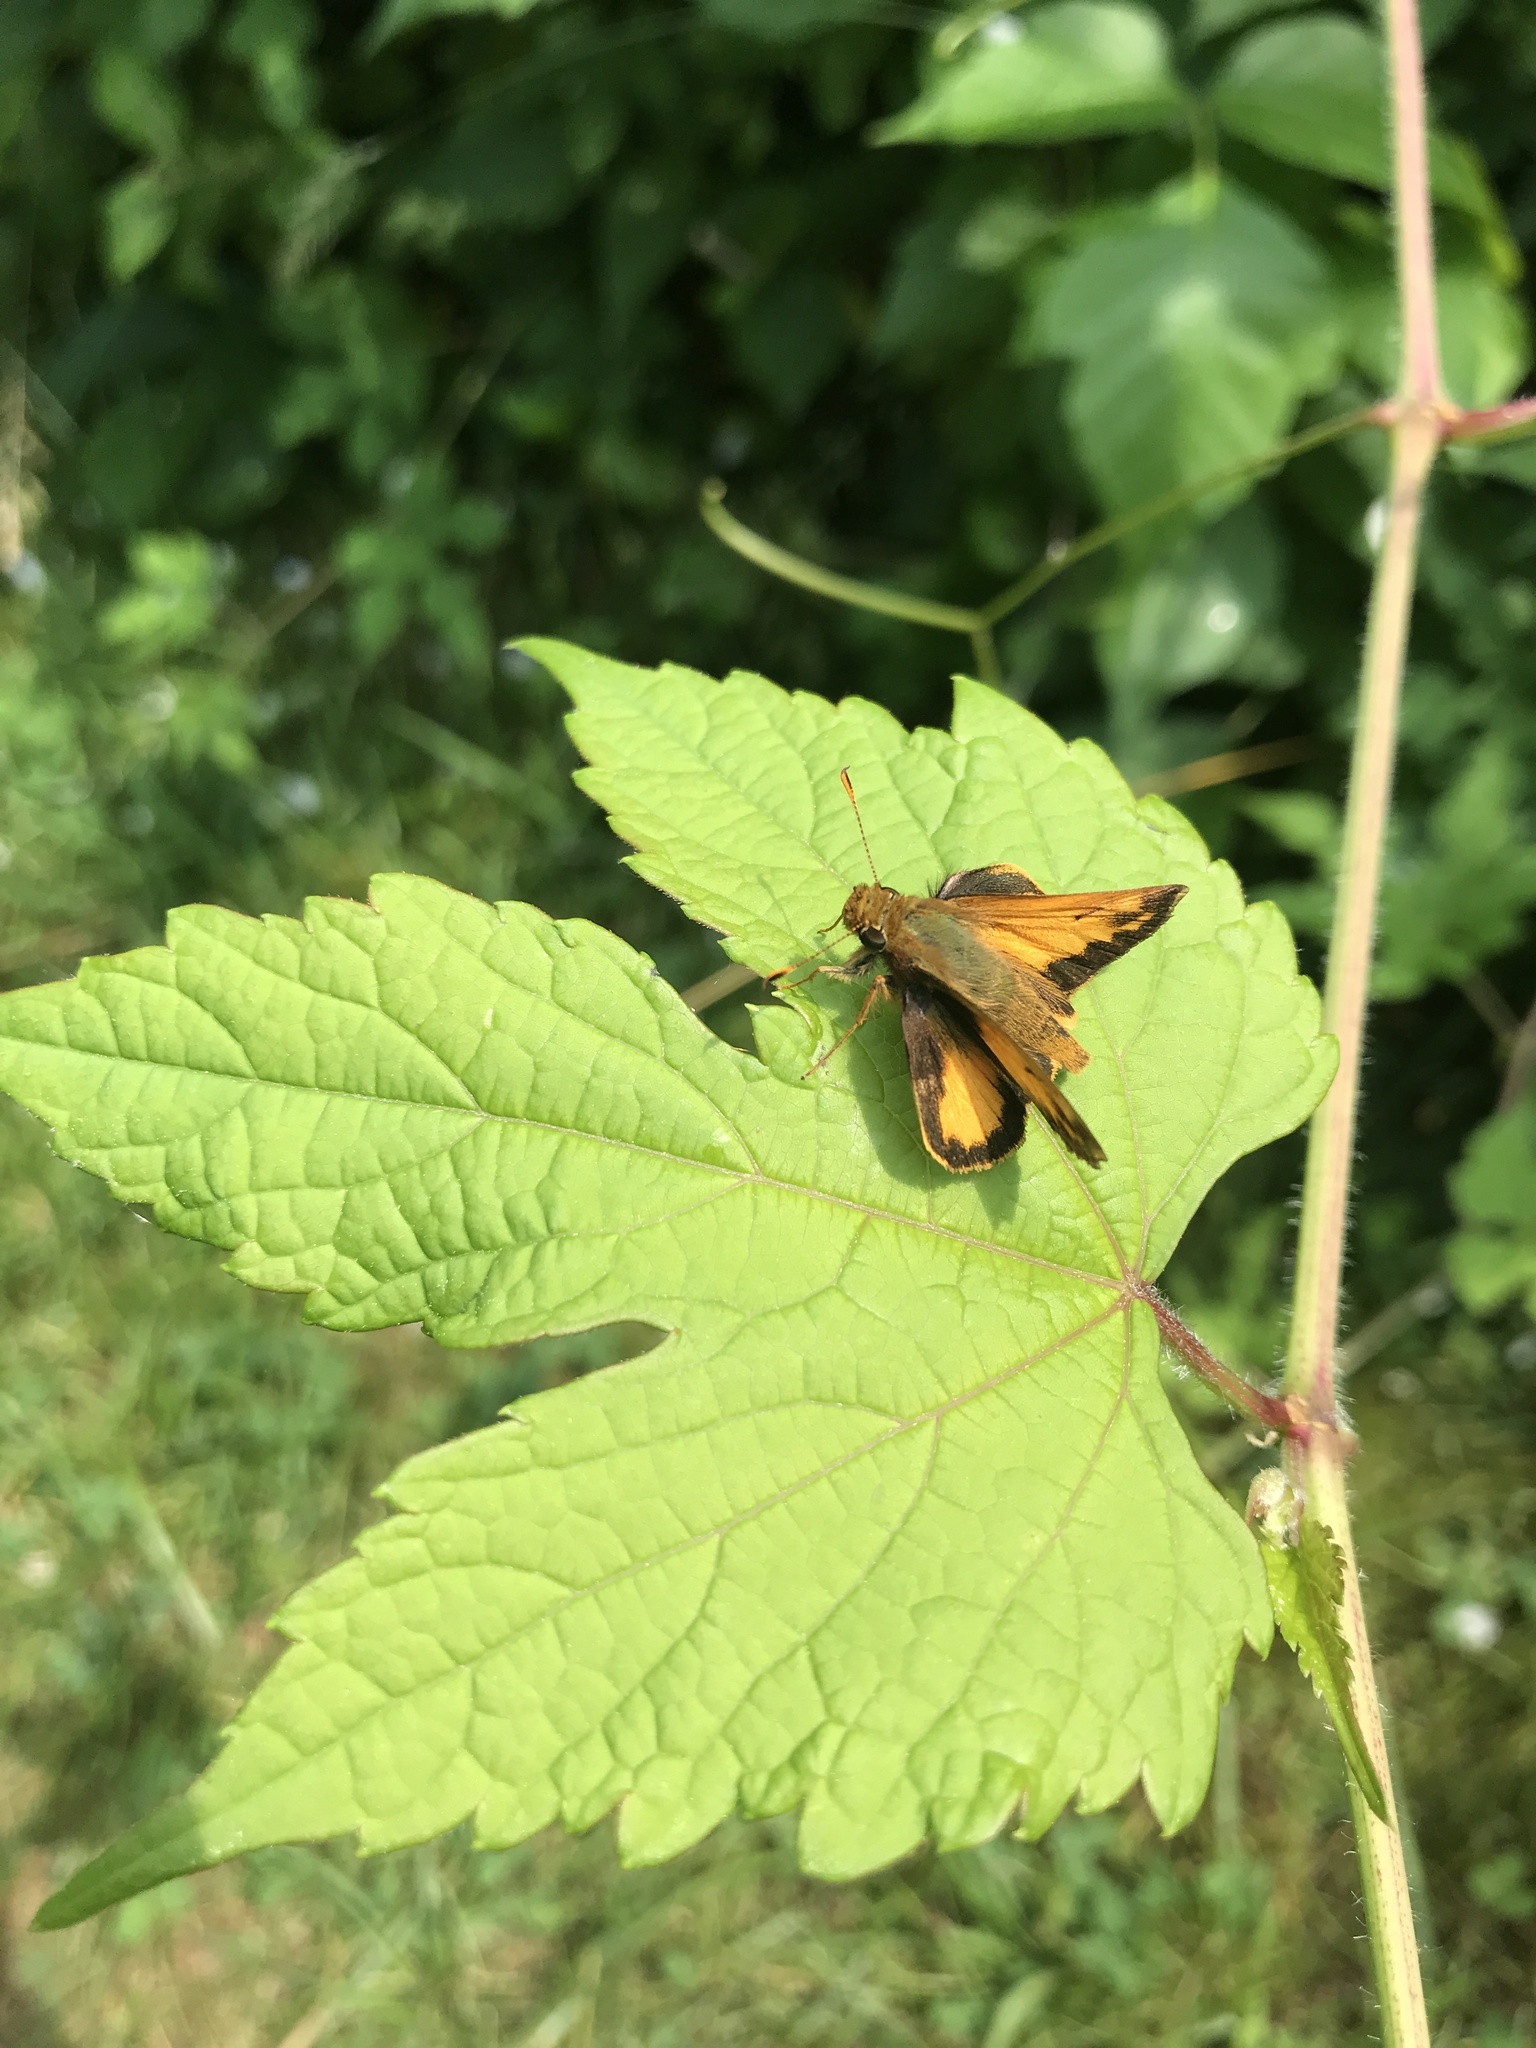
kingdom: Animalia
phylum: Arthropoda
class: Insecta
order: Lepidoptera
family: Hesperiidae
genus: Lon
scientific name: Lon zabulon
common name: Zabulon skipper
